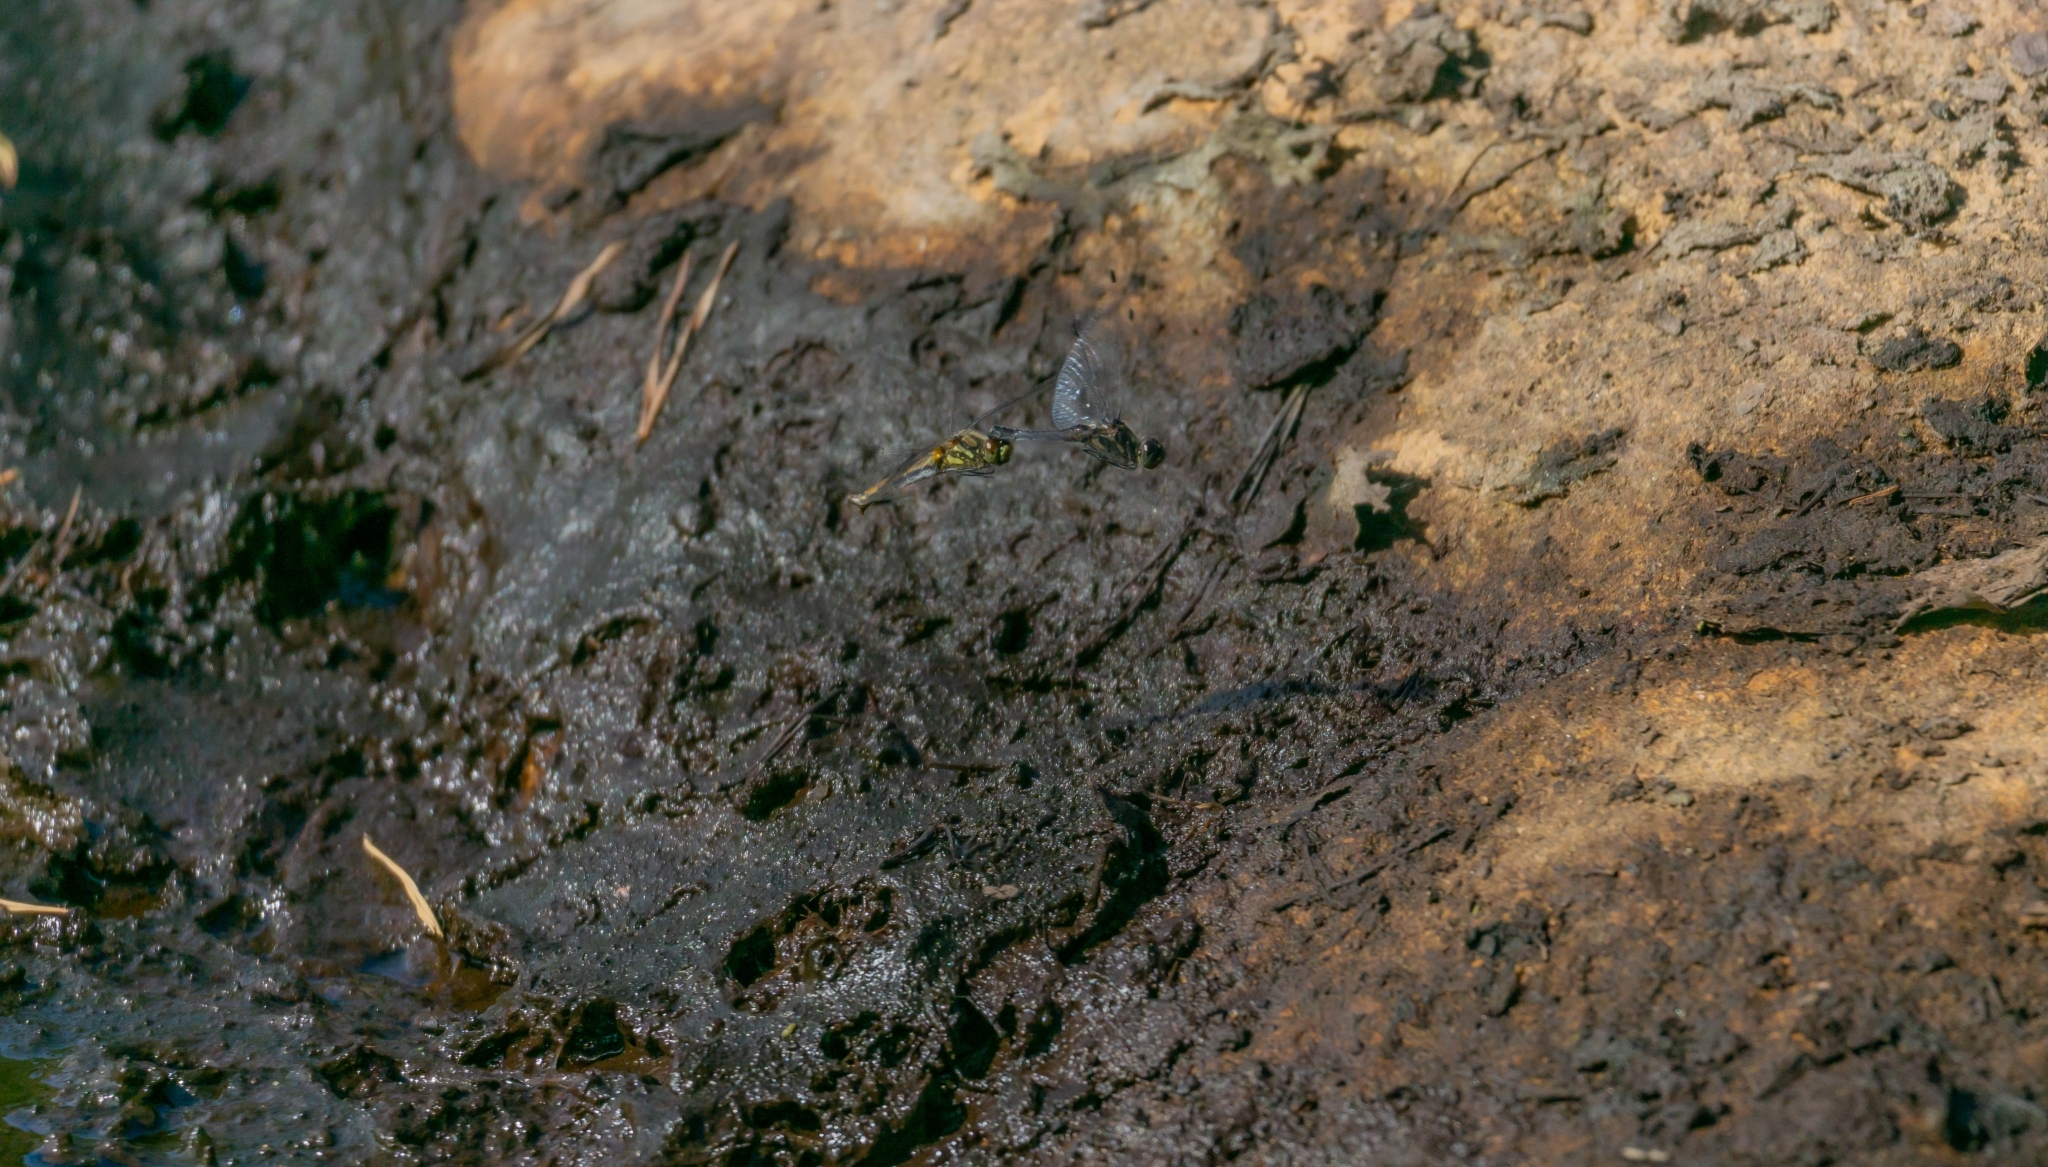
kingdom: Animalia
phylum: Arthropoda
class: Insecta
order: Odonata
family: Libellulidae
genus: Sympetrum
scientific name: Sympetrum danae
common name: Black darter
